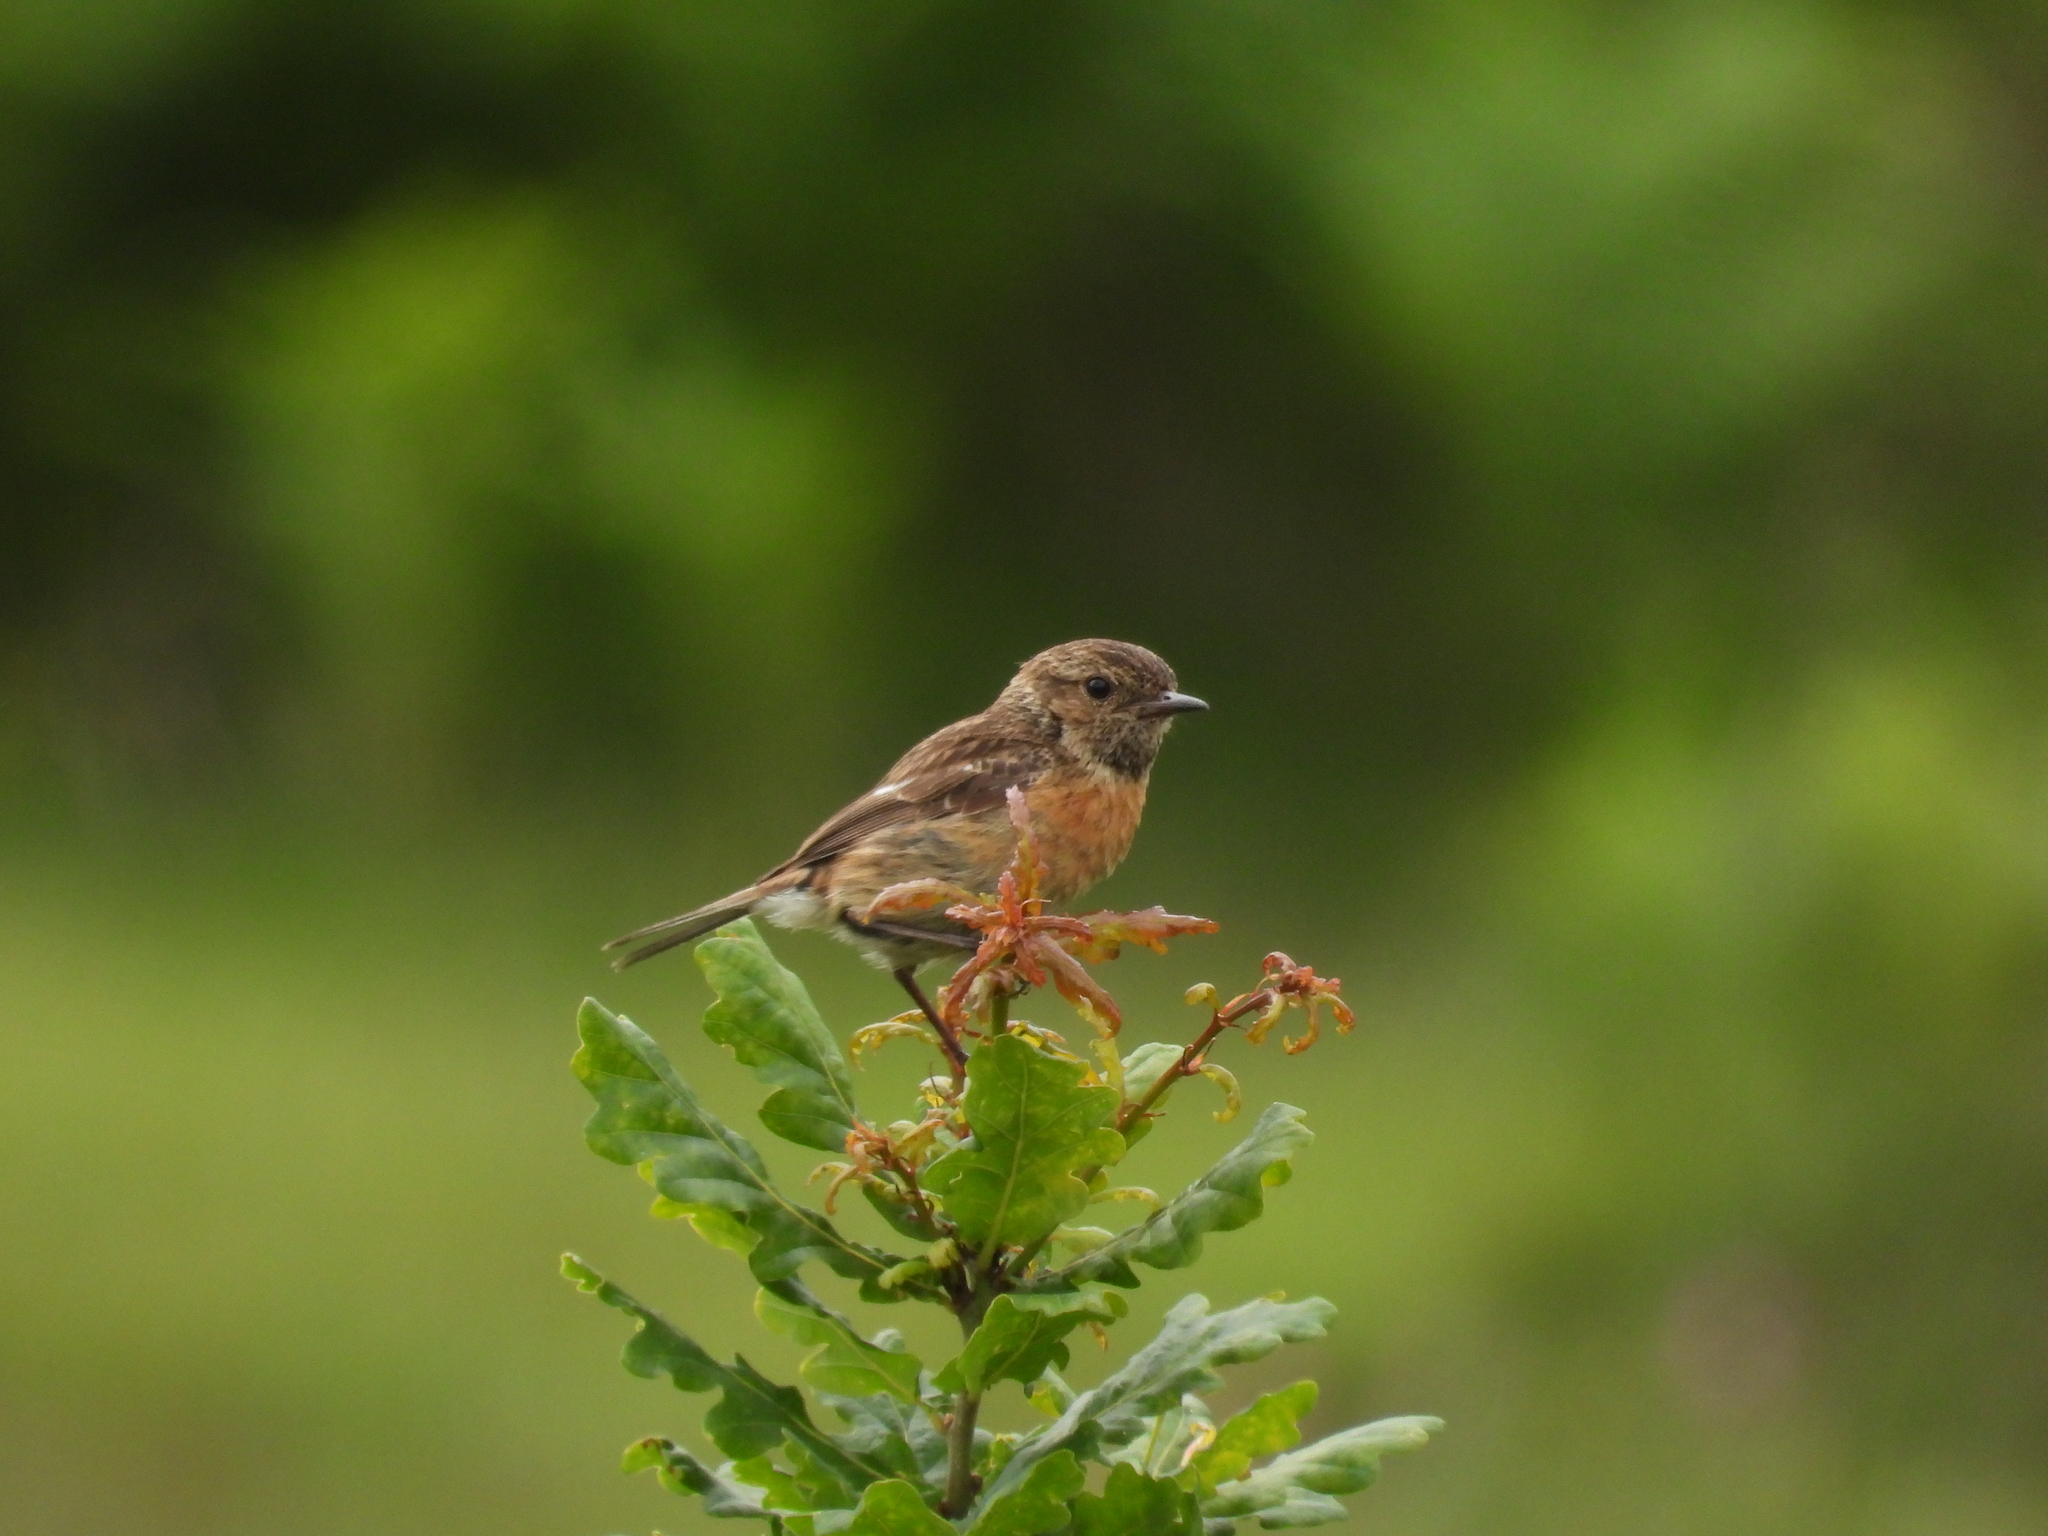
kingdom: Animalia
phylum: Chordata
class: Aves
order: Passeriformes
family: Muscicapidae
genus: Saxicola
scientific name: Saxicola rubicola
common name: European stonechat
